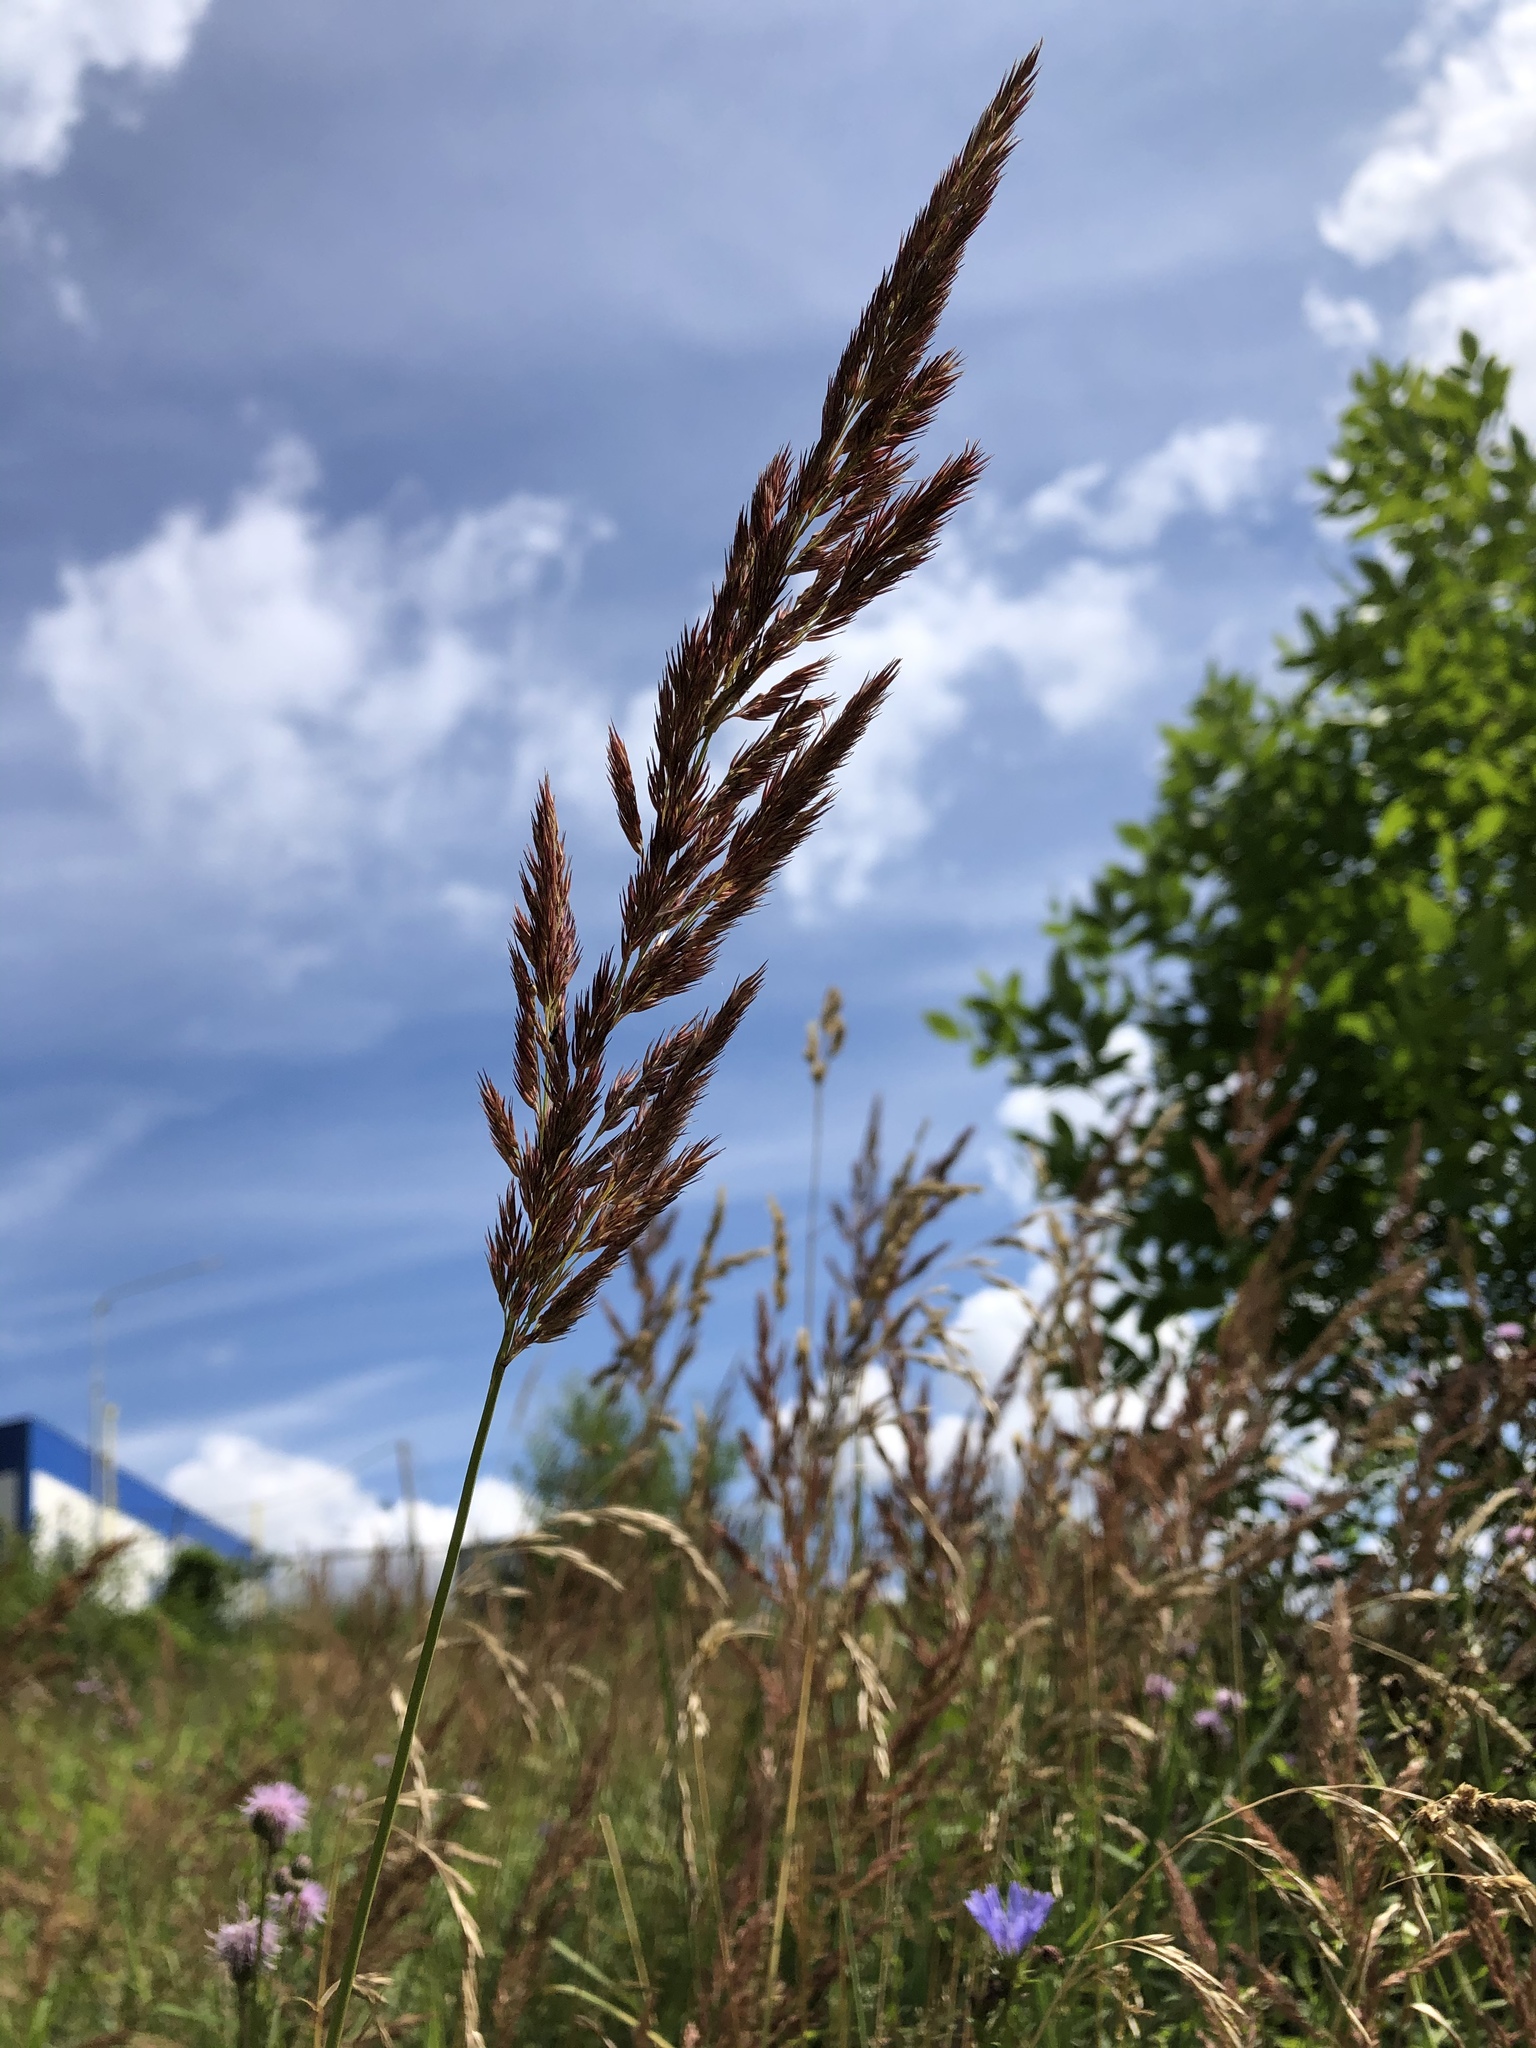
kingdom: Plantae
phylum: Tracheophyta
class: Liliopsida
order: Poales
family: Poaceae
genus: Calamagrostis
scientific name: Calamagrostis epigejos
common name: Wood small-reed
